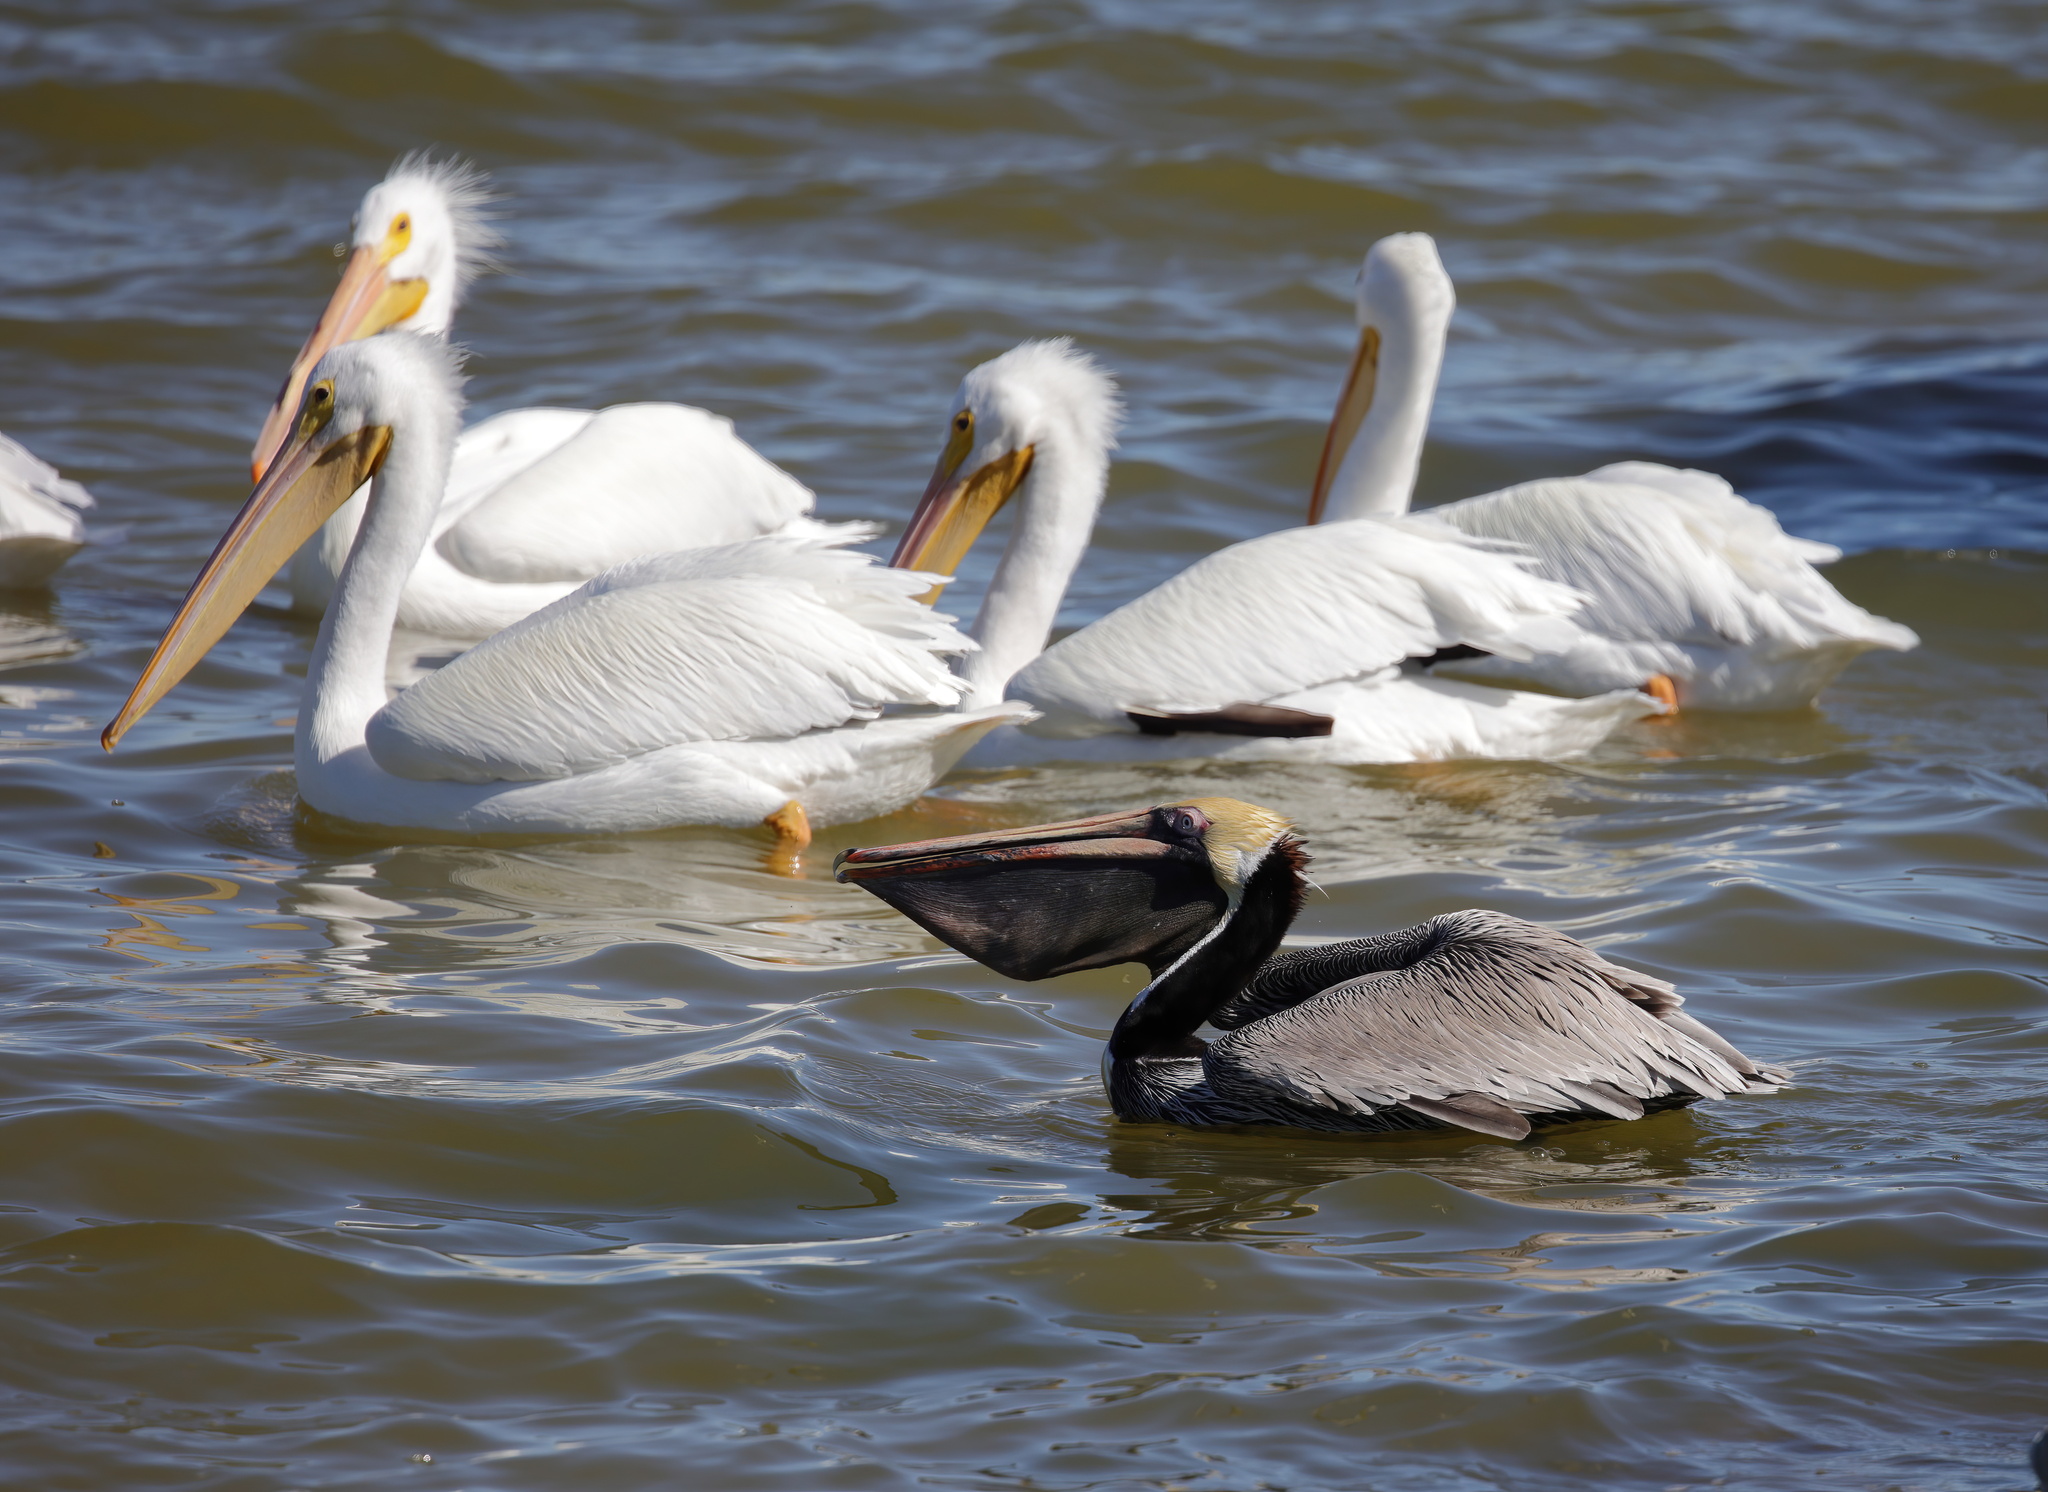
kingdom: Animalia
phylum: Chordata
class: Aves
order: Pelecaniformes
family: Pelecanidae
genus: Pelecanus
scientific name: Pelecanus occidentalis
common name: Brown pelican
